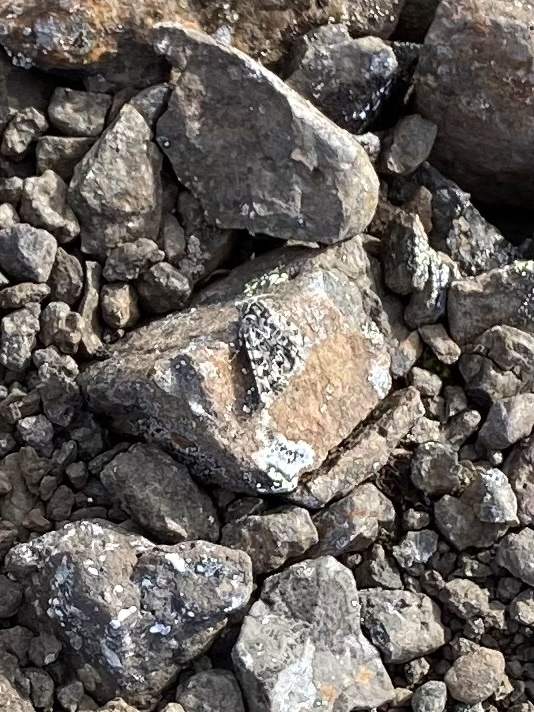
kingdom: Animalia
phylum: Arthropoda
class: Insecta
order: Lepidoptera
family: Noctuidae
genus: Polia
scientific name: Polia richardsoni
